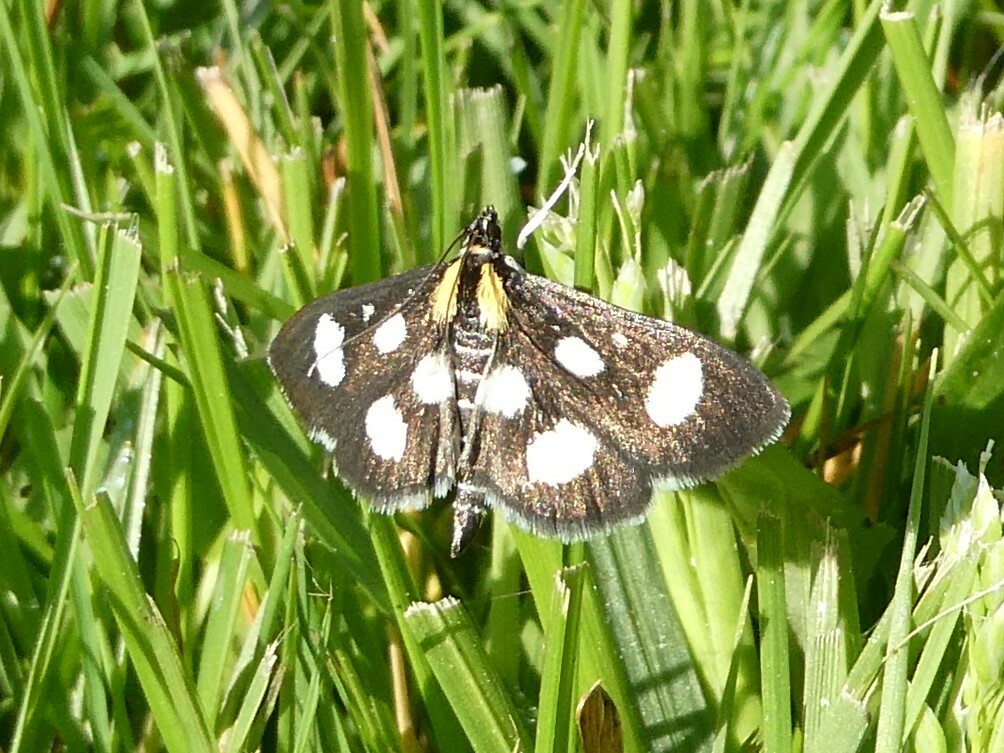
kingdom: Animalia
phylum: Arthropoda
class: Insecta
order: Lepidoptera
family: Crambidae
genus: Anania
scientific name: Anania funebris
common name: White-spotted sable moth
